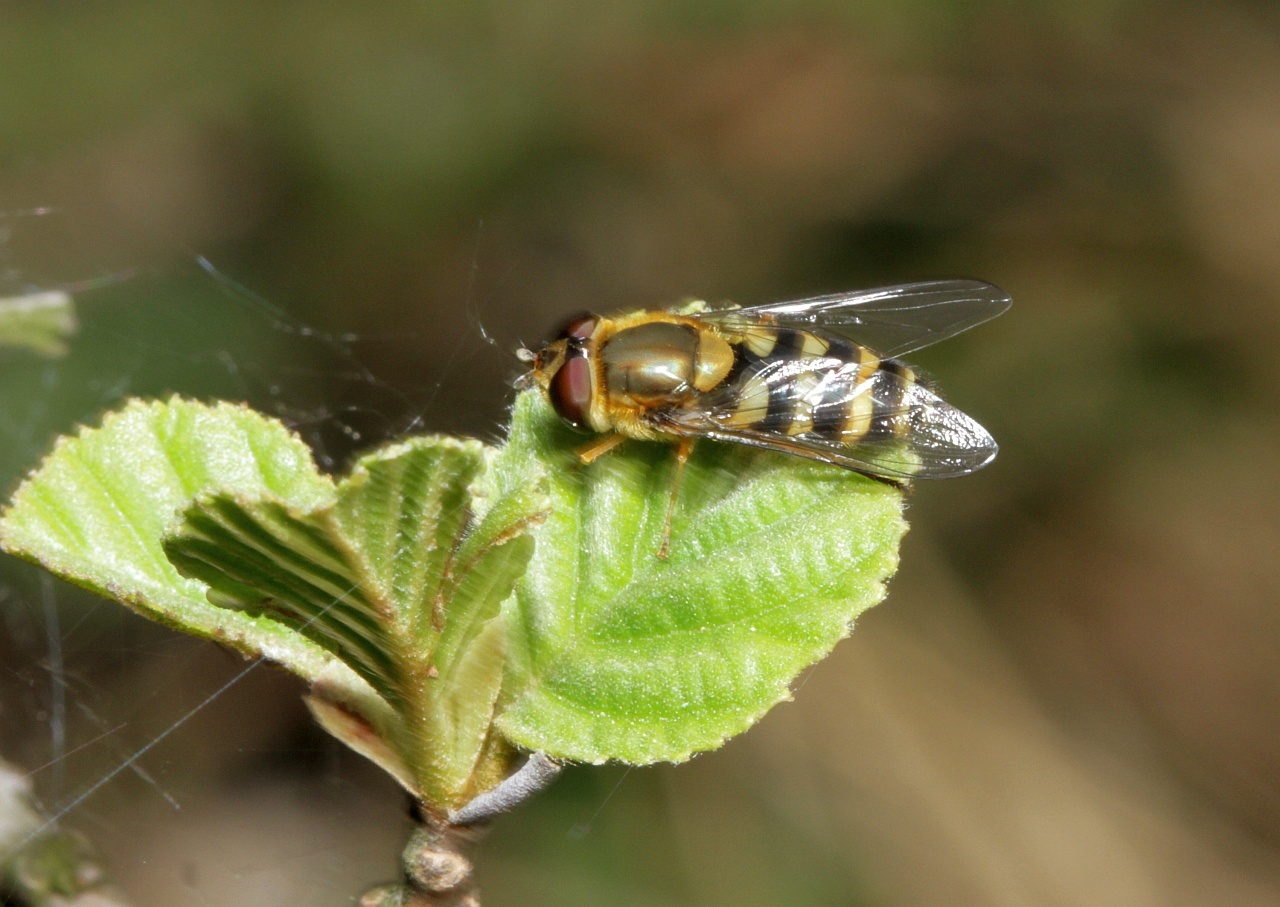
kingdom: Animalia
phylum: Arthropoda
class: Insecta
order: Diptera
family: Syrphidae
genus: Syrphus
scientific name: Syrphus
